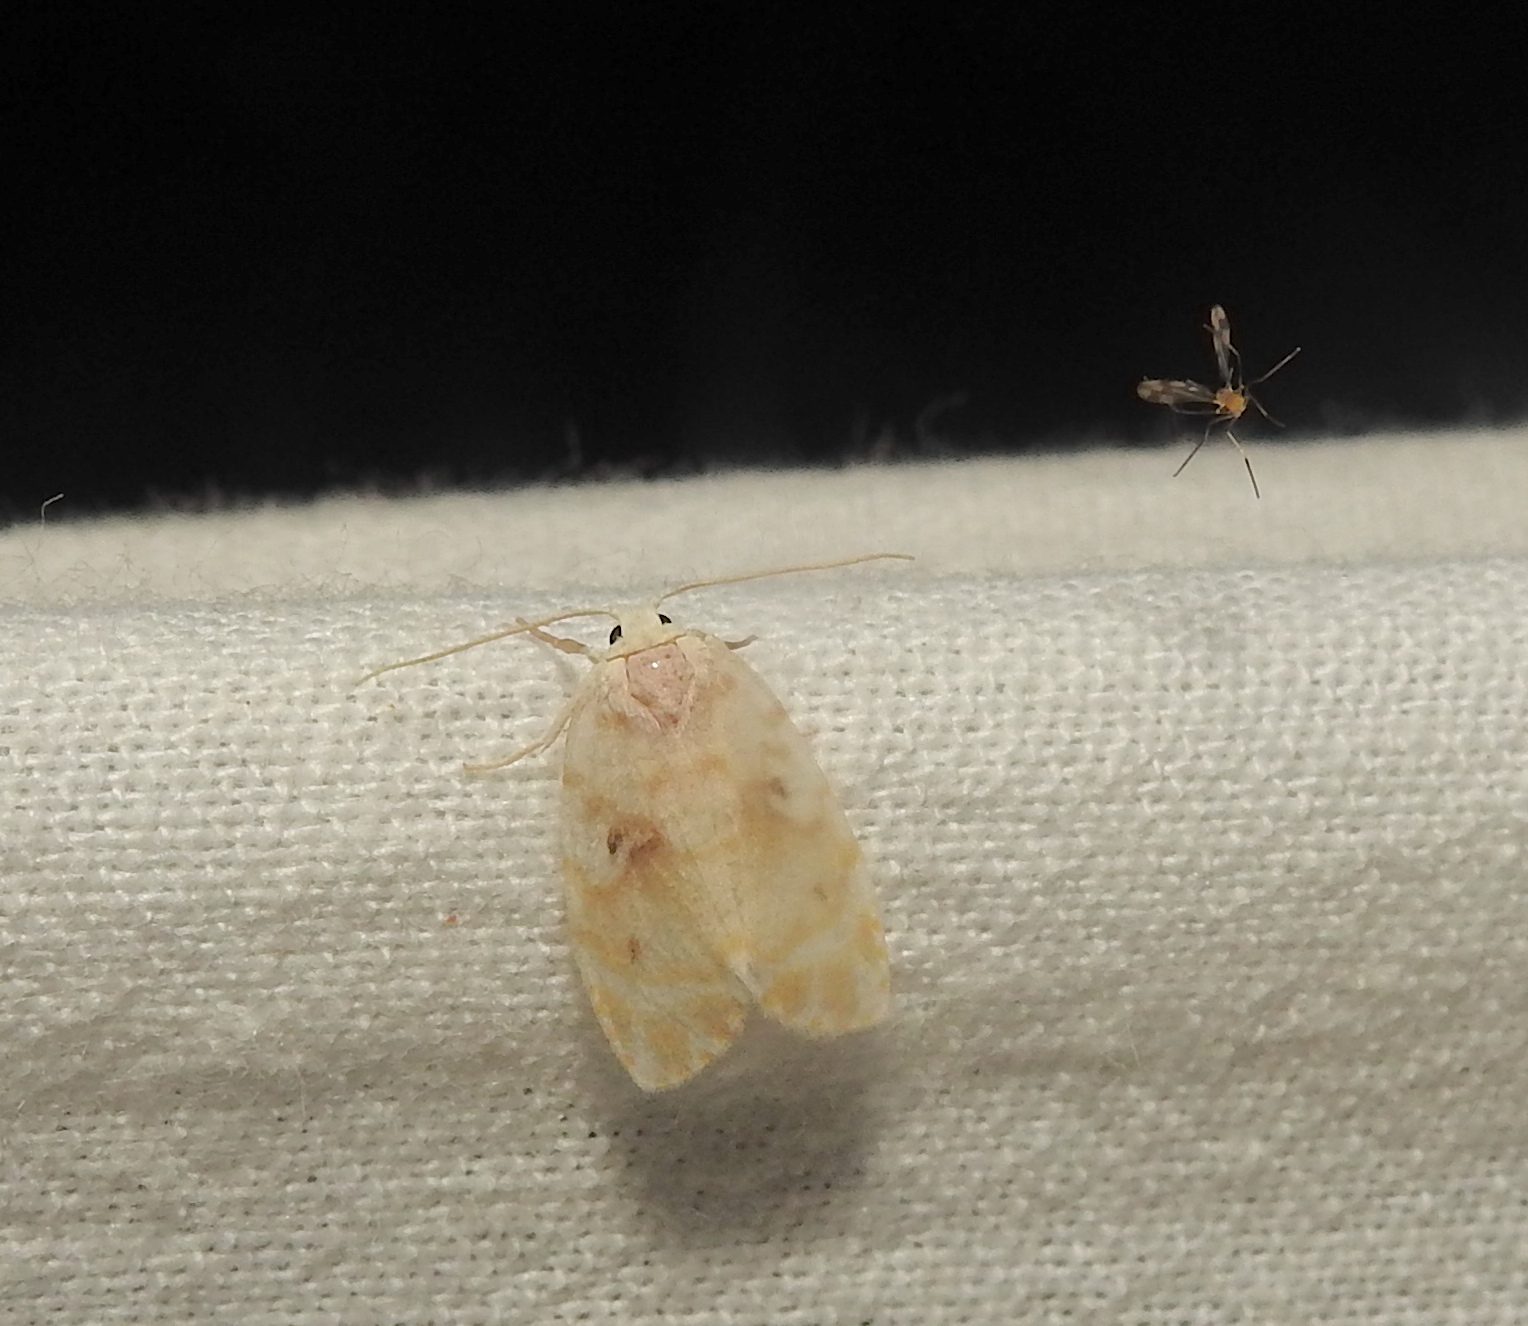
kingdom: Animalia
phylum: Arthropoda
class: Insecta
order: Lepidoptera
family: Erebidae
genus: Schistophleps
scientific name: Schistophleps
